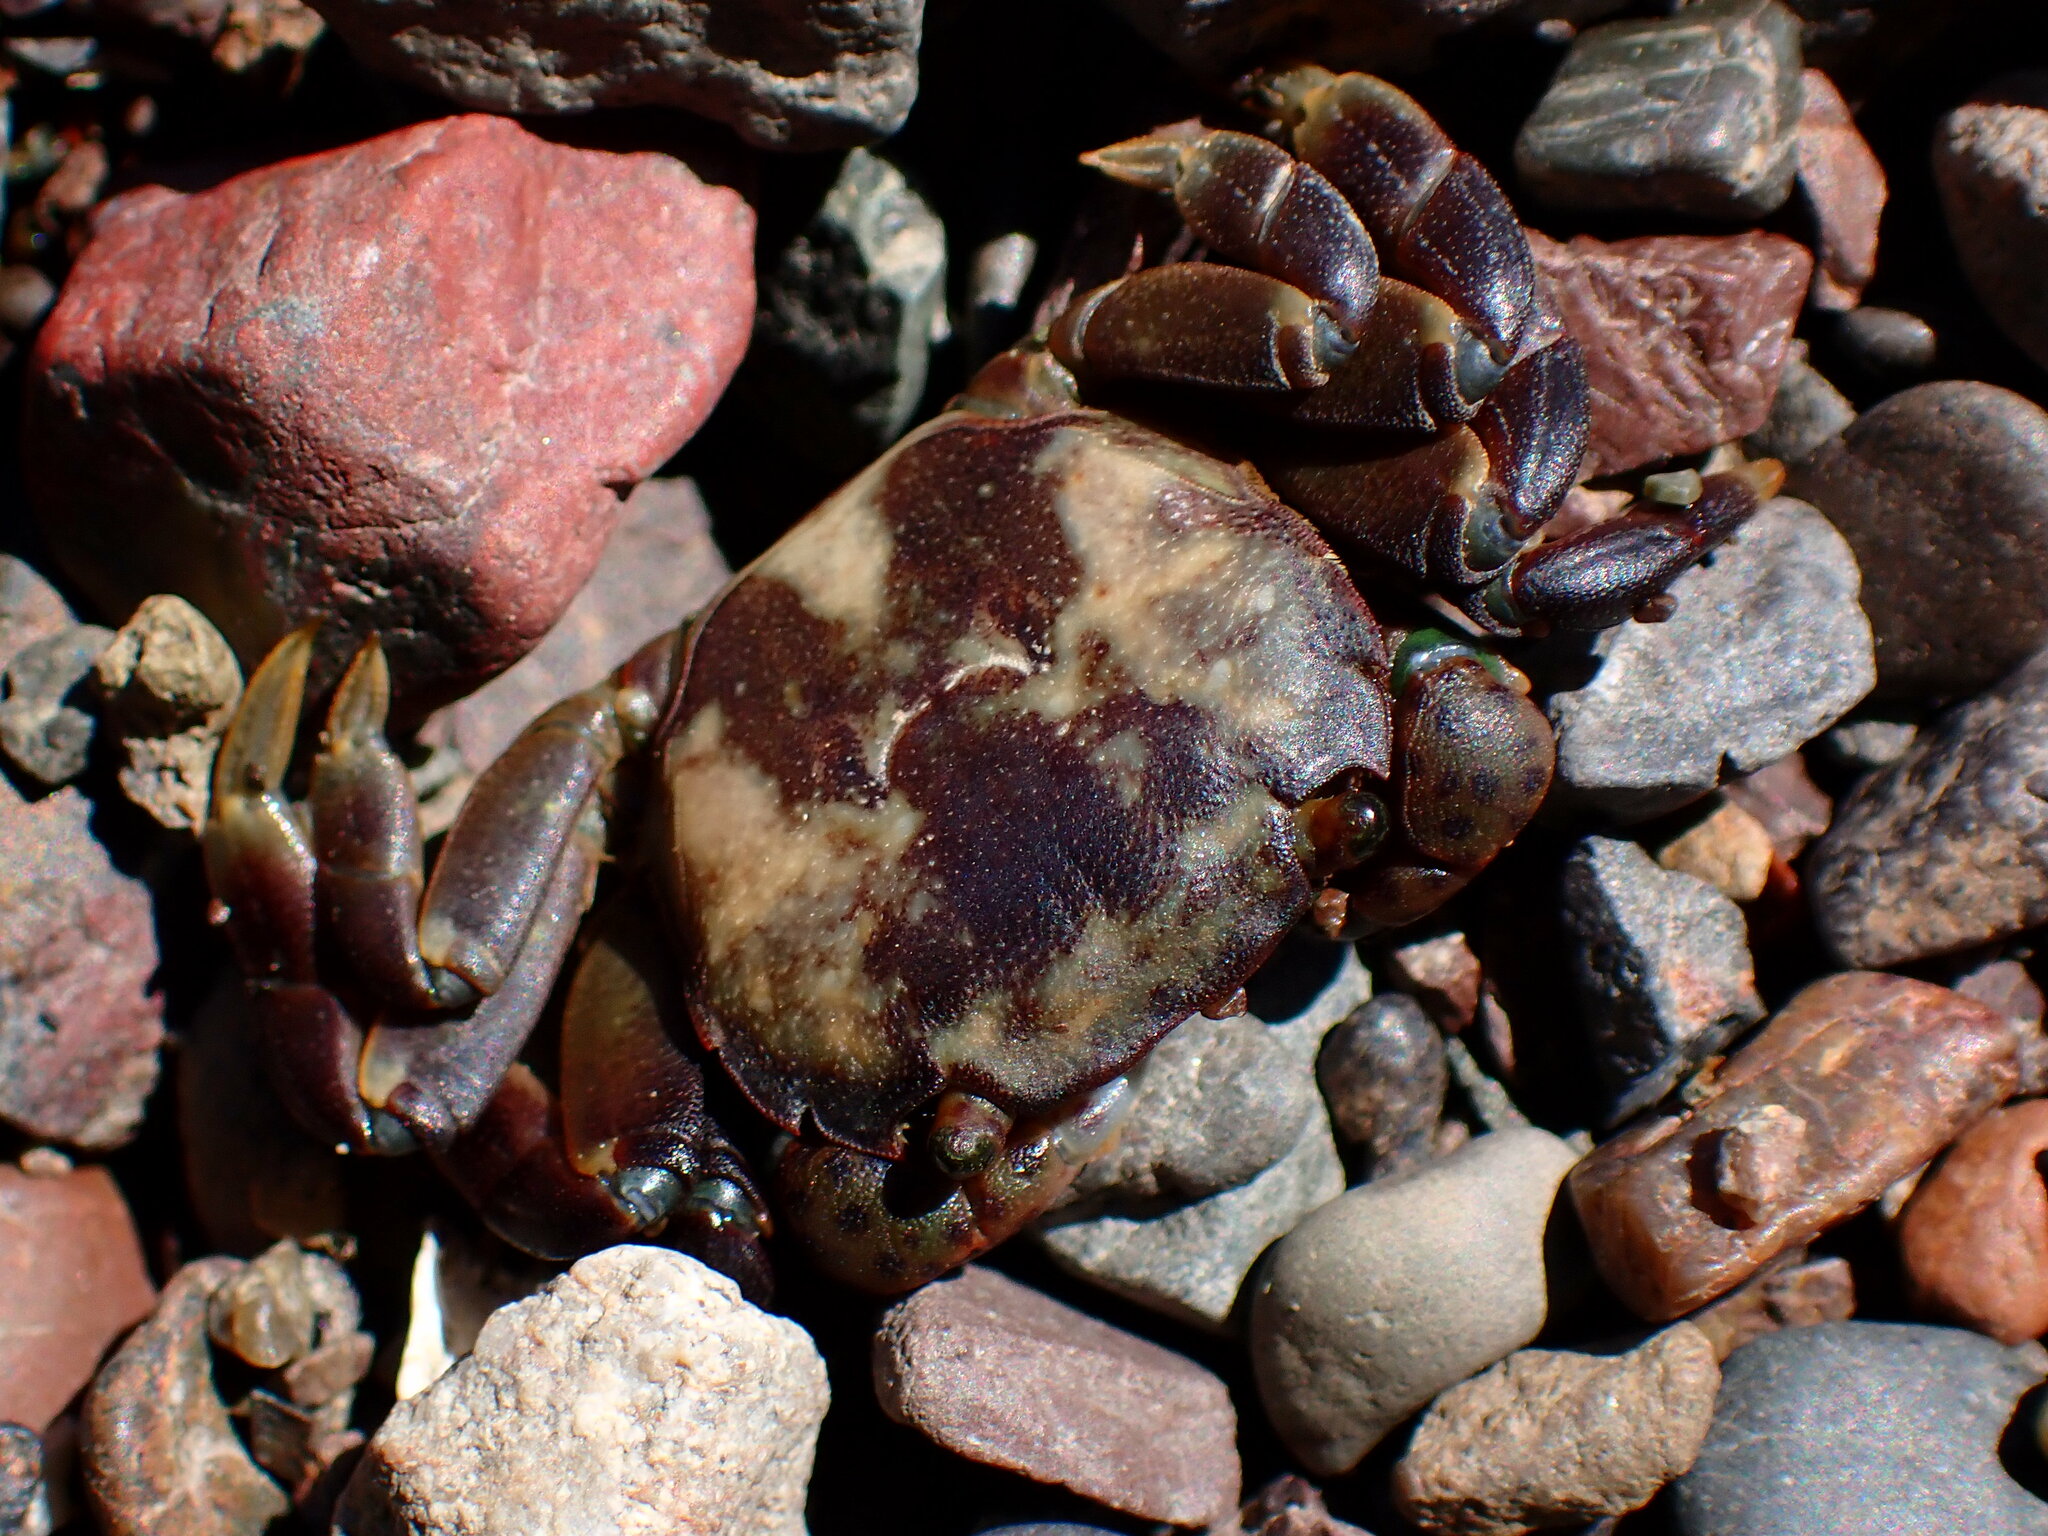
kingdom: Animalia
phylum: Arthropoda
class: Malacostraca
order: Decapoda
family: Varunidae
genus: Hemigrapsus
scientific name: Hemigrapsus nudus
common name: Purple shore crab
